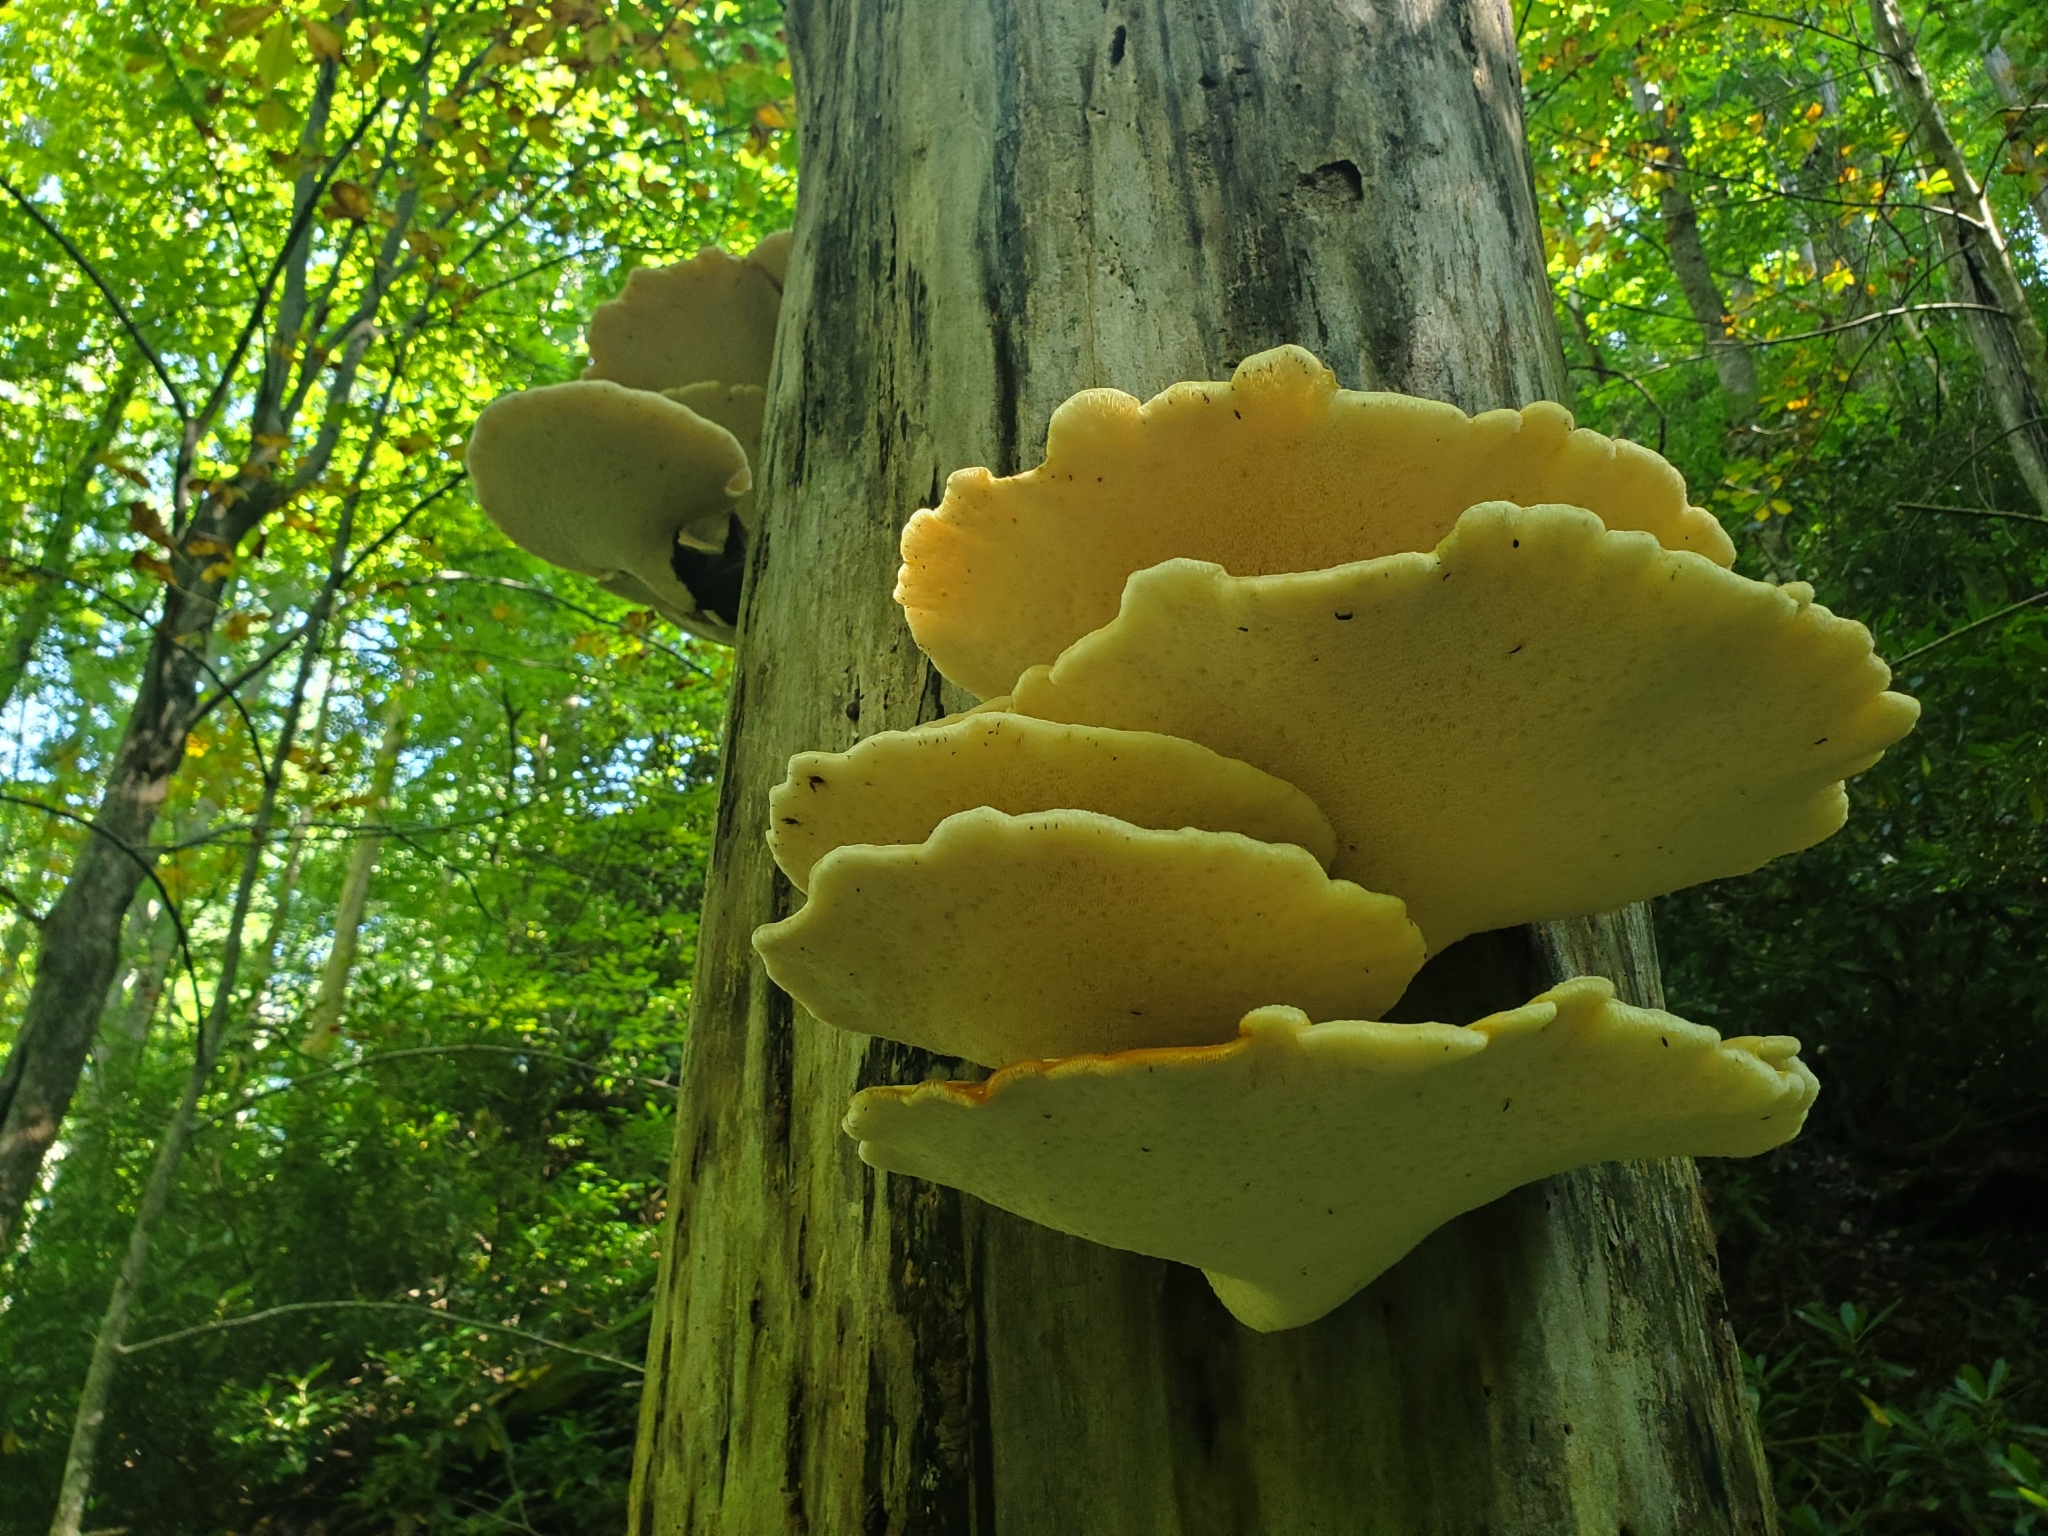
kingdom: Fungi
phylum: Basidiomycota
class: Agaricomycetes
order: Polyporales
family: Polyporaceae
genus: Cerioporus
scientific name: Cerioporus squamosus
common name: Dryad's saddle
